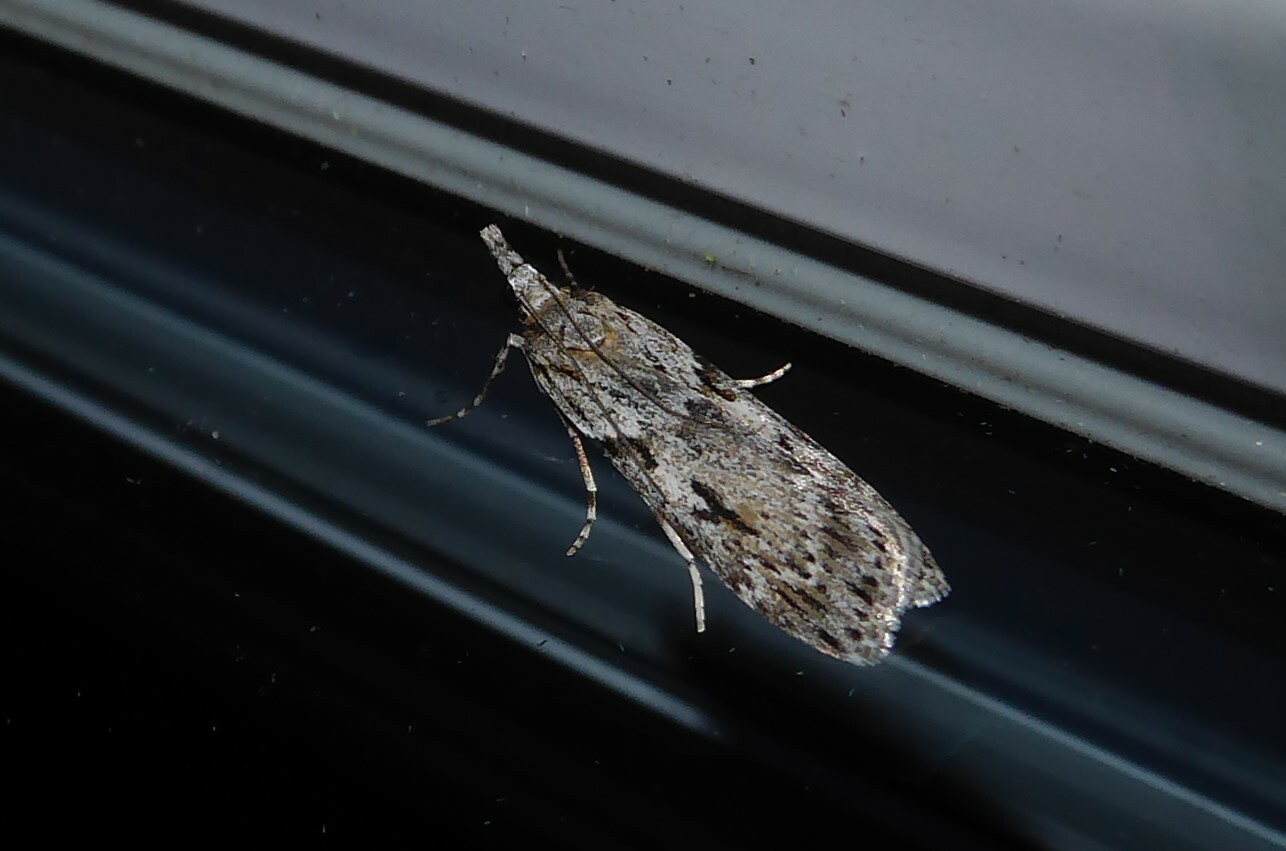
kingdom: Animalia
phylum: Arthropoda
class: Insecta
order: Lepidoptera
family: Crambidae
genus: Scoparia
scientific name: Scoparia halopis
